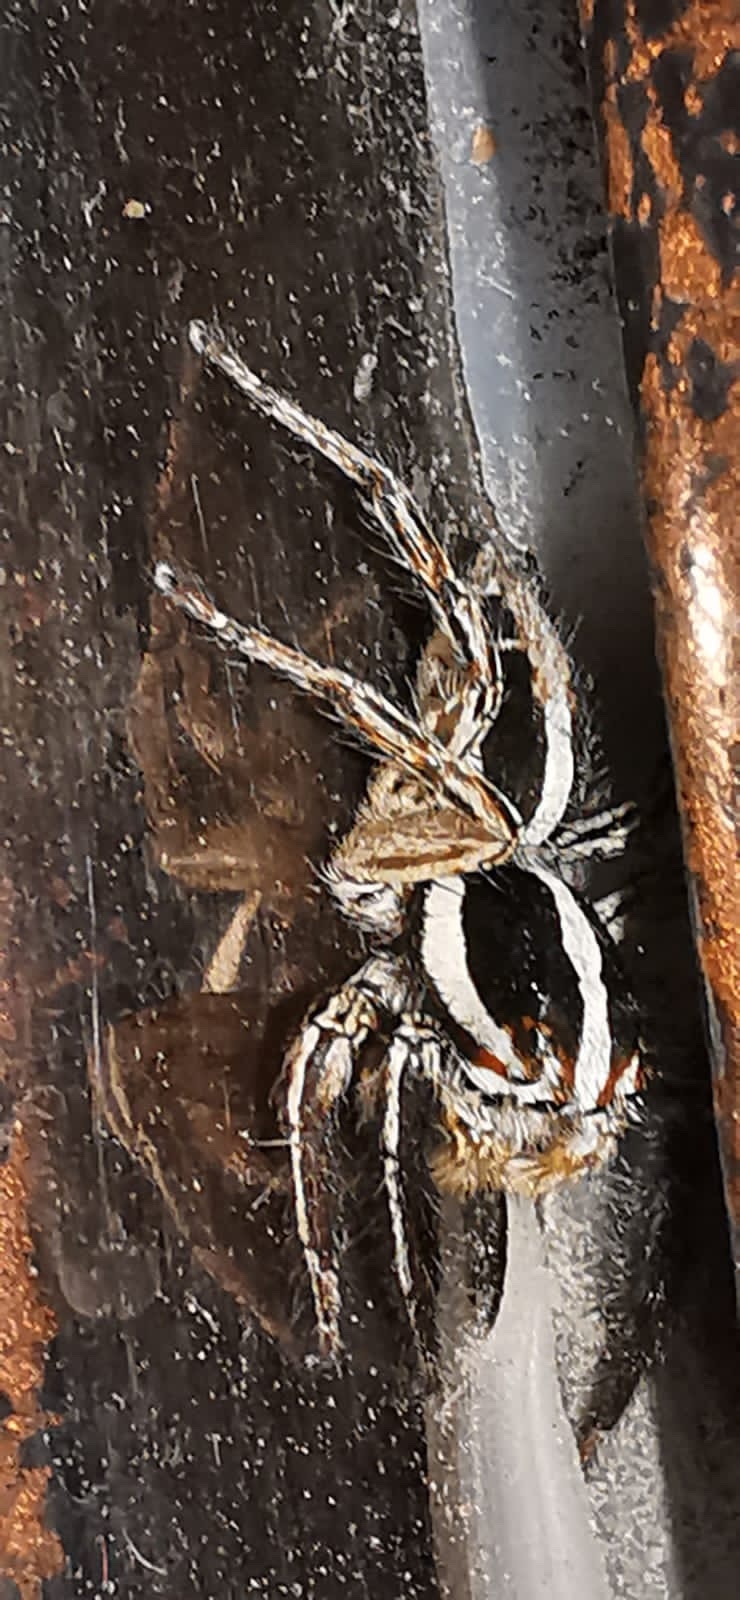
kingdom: Animalia
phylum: Arthropoda
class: Arachnida
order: Araneae
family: Salticidae
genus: Plexippus
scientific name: Plexippus paykulli
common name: Pantropical jumper
